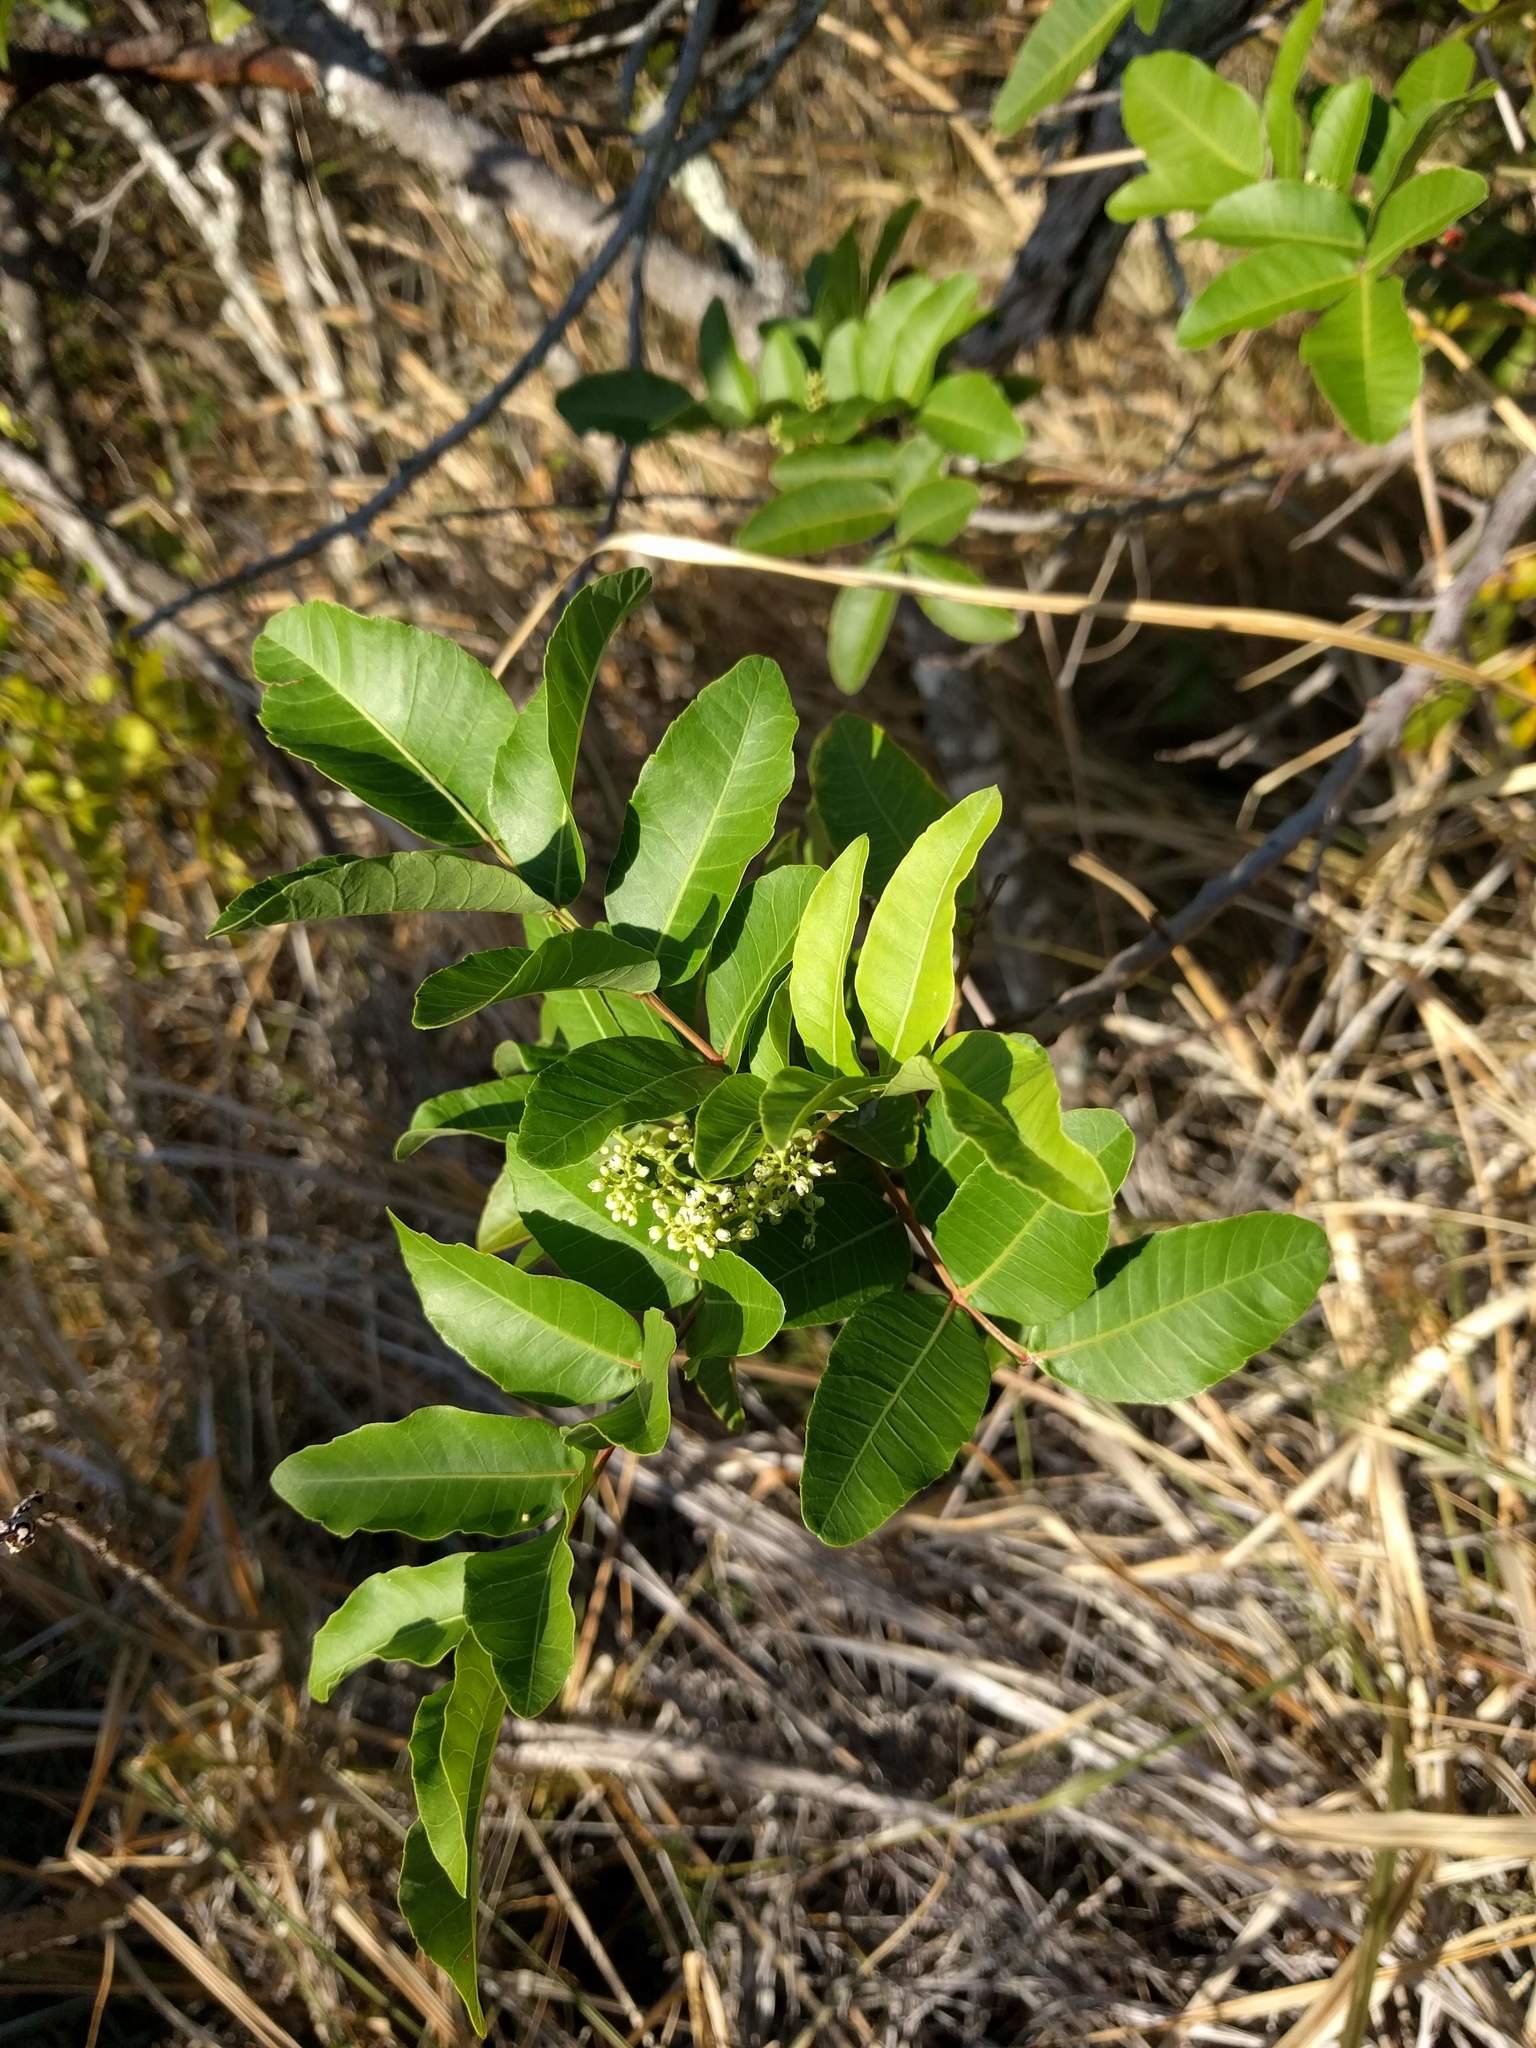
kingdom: Plantae
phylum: Tracheophyta
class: Magnoliopsida
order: Sapindales
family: Anacardiaceae
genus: Schinus
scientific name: Schinus terebinthifolia
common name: Brazilian peppertree
